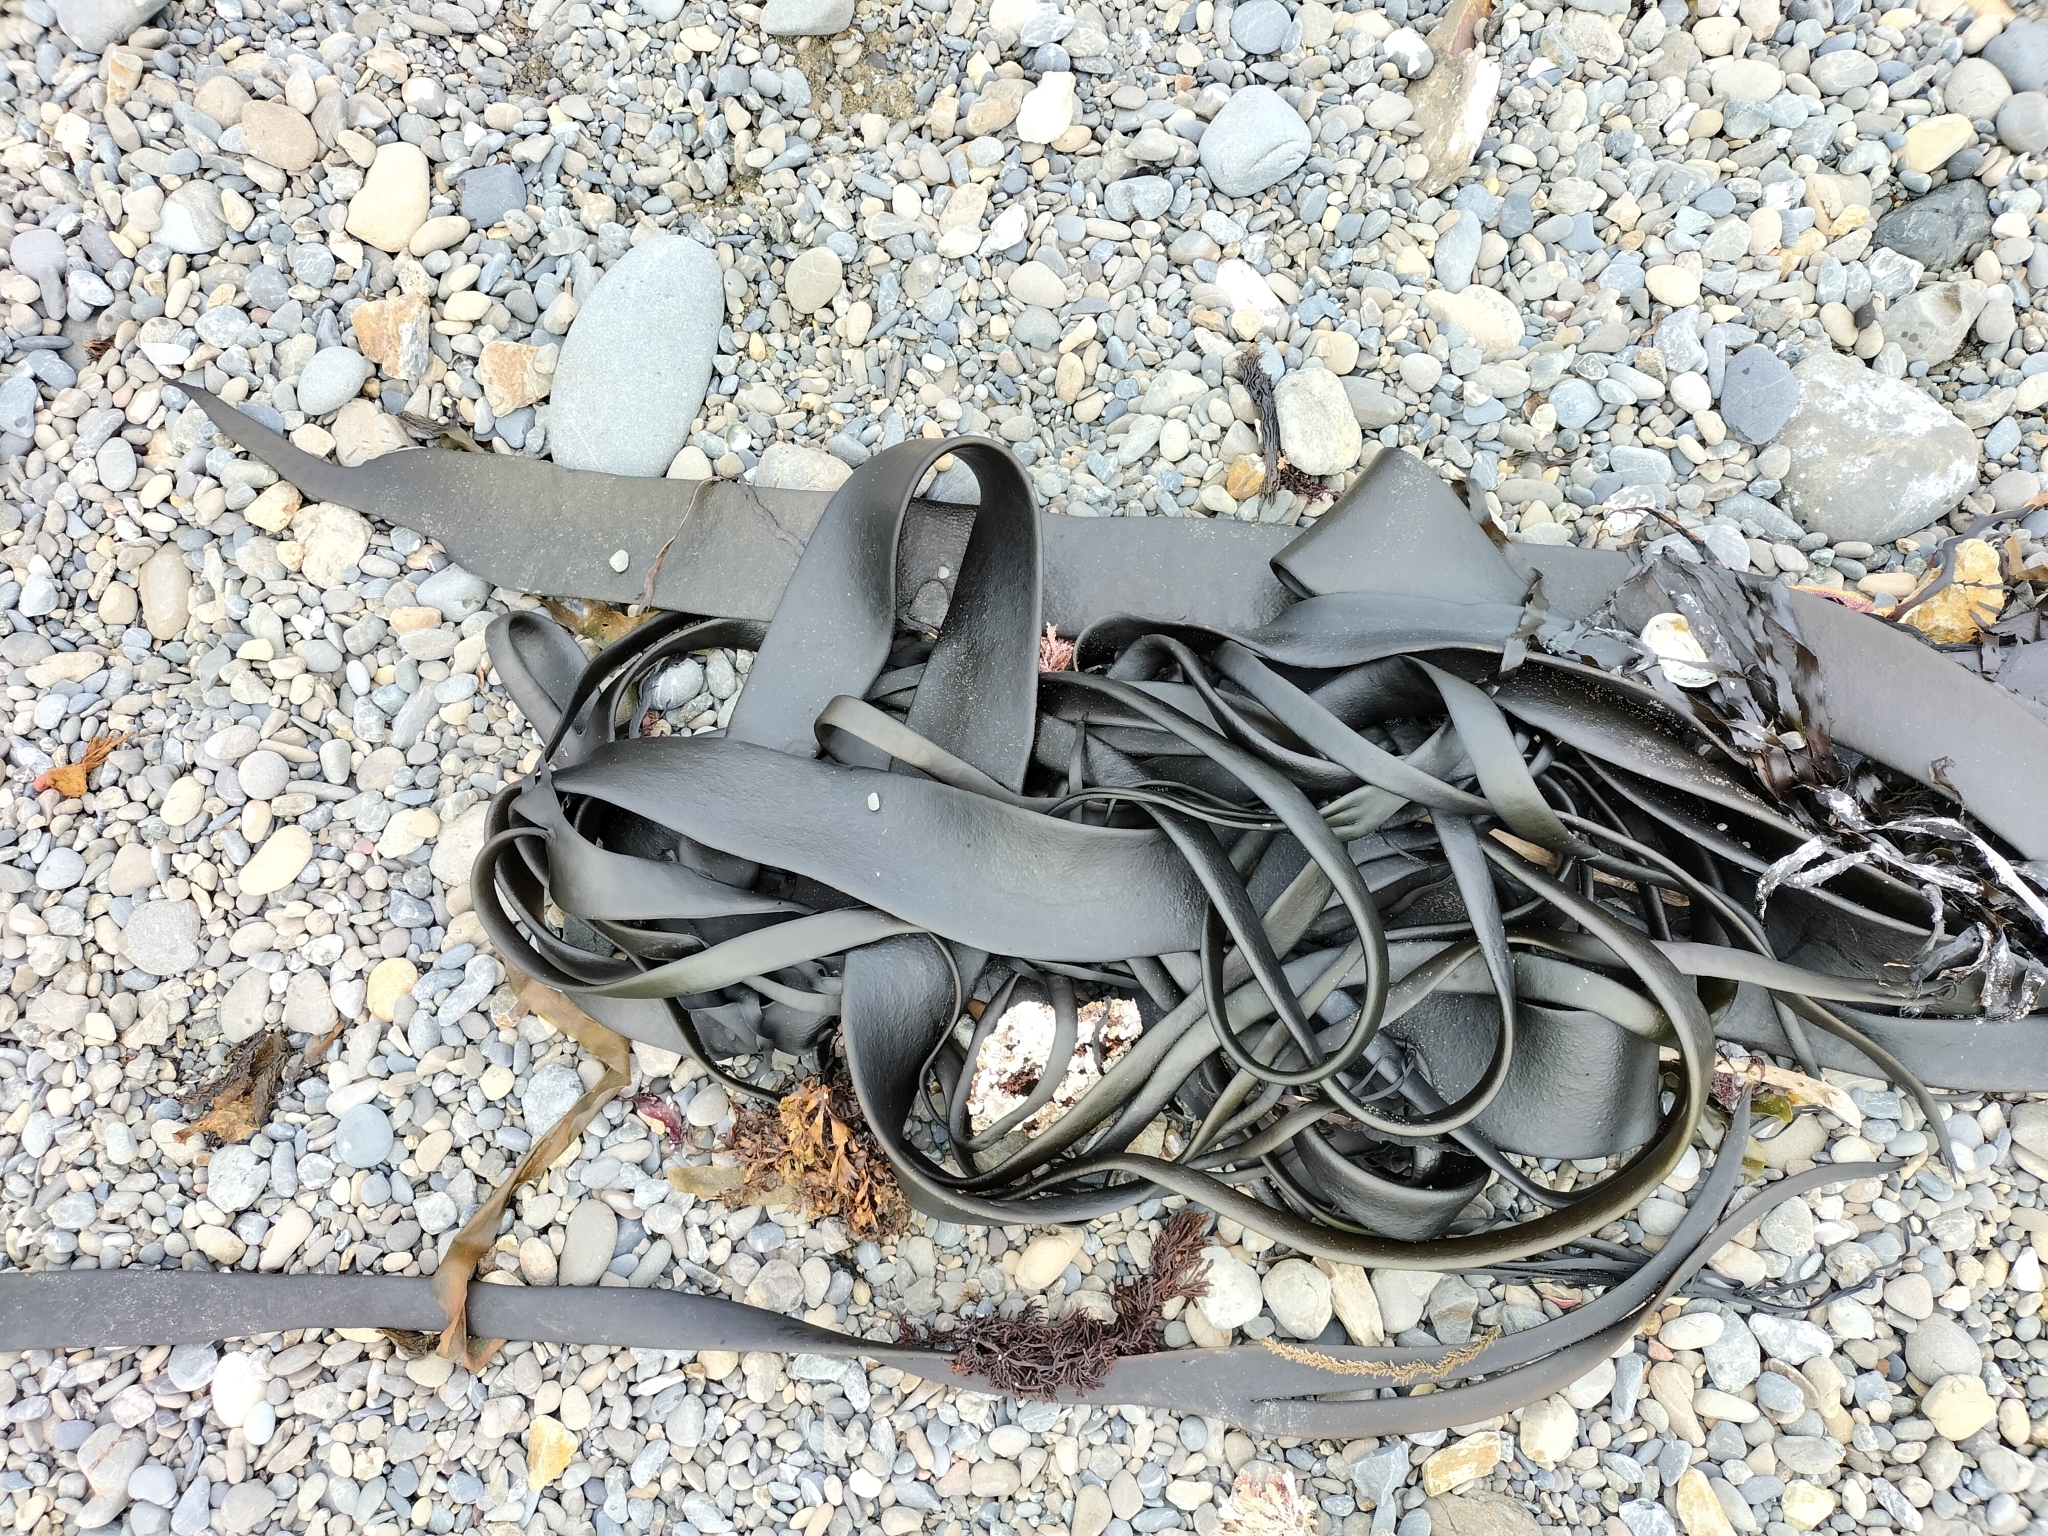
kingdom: Chromista
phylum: Ochrophyta
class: Phaeophyceae
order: Fucales
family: Durvillaeaceae
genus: Durvillaea
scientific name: Durvillaea antarctica
